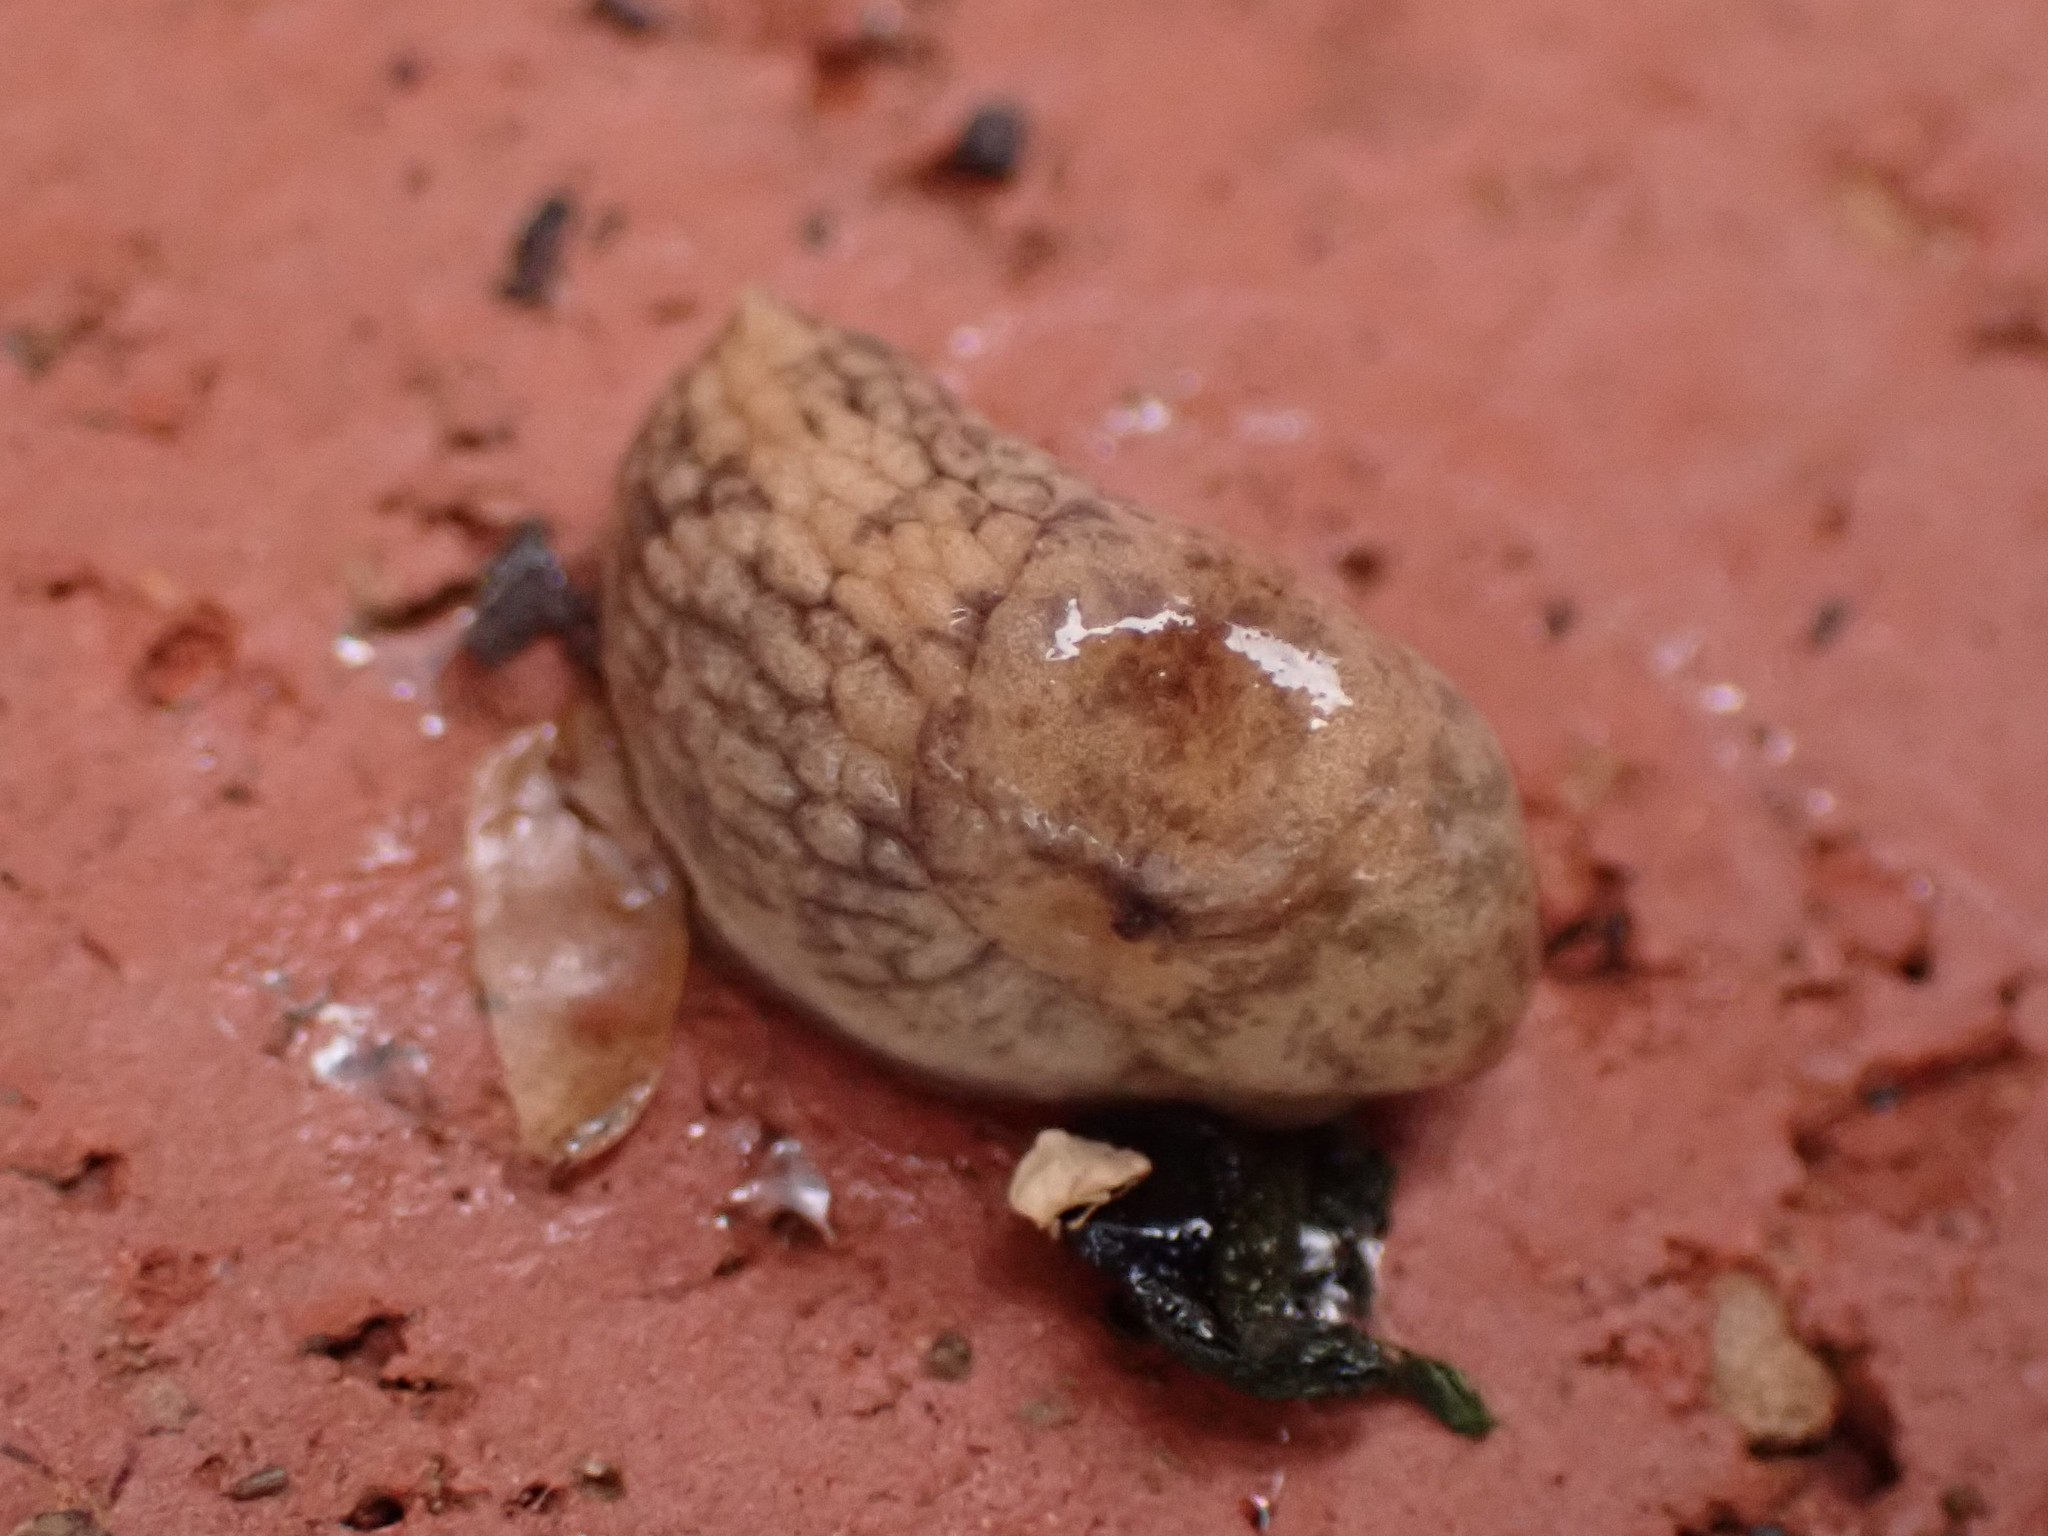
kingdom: Animalia
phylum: Mollusca
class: Gastropoda
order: Stylommatophora
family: Agriolimacidae
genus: Deroceras
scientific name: Deroceras reticulatum
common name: Gray field slug
